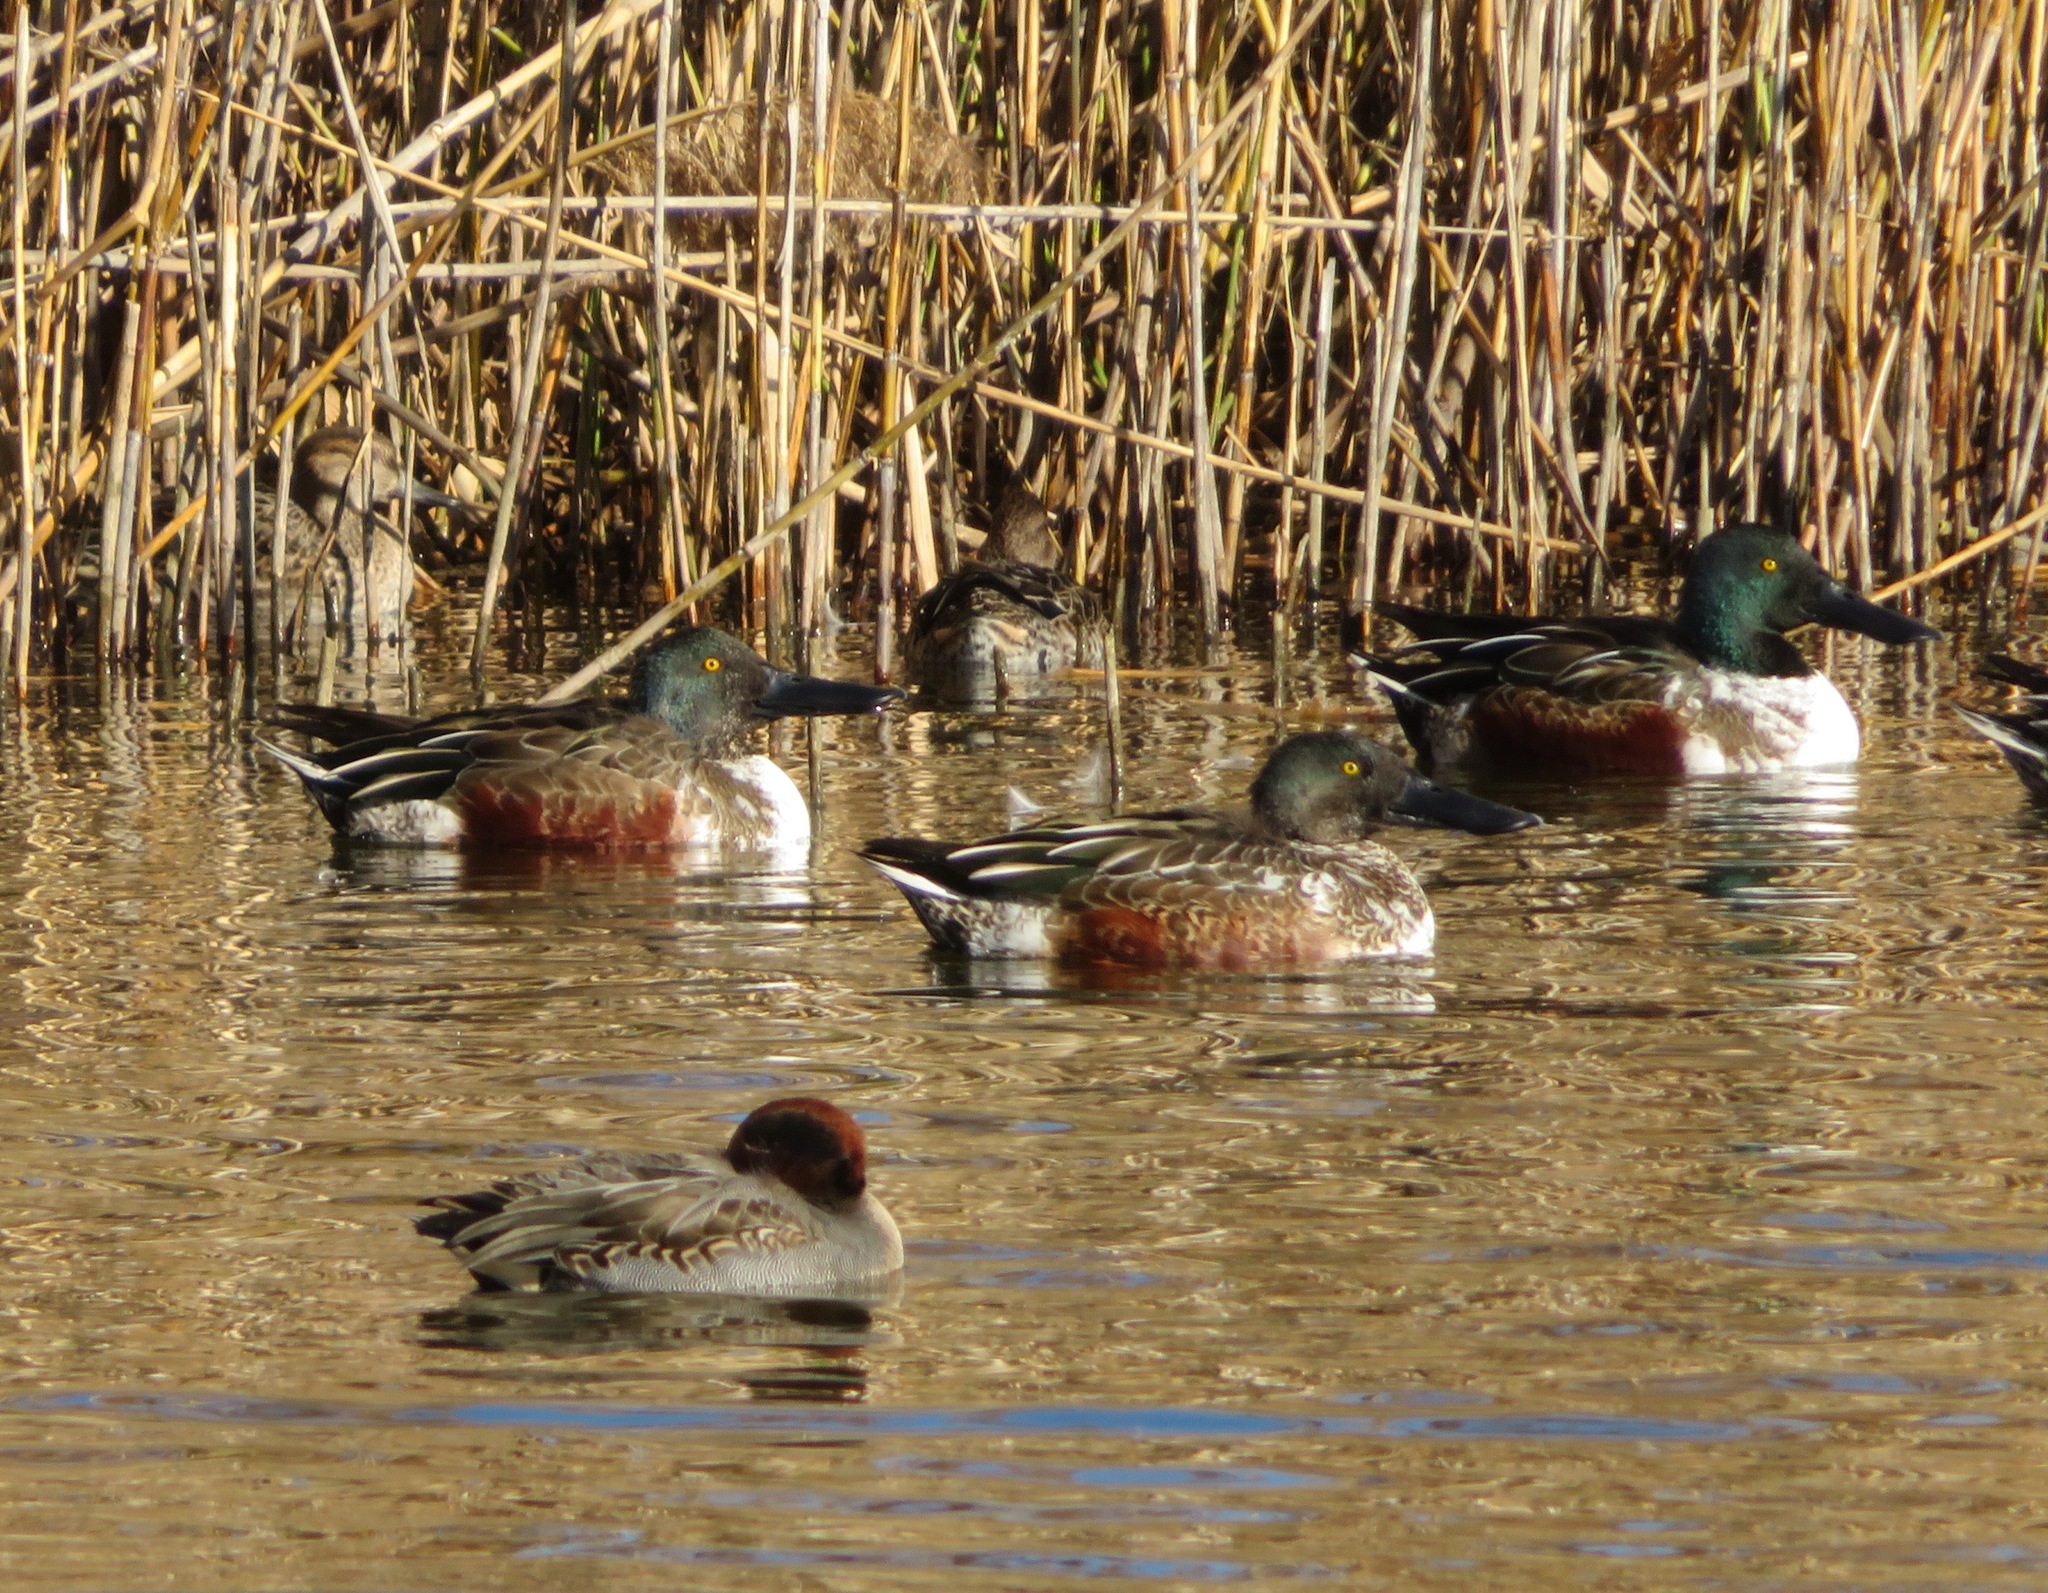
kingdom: Animalia
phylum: Chordata
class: Aves
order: Anseriformes
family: Anatidae
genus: Spatula
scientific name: Spatula clypeata
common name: Northern shoveler
